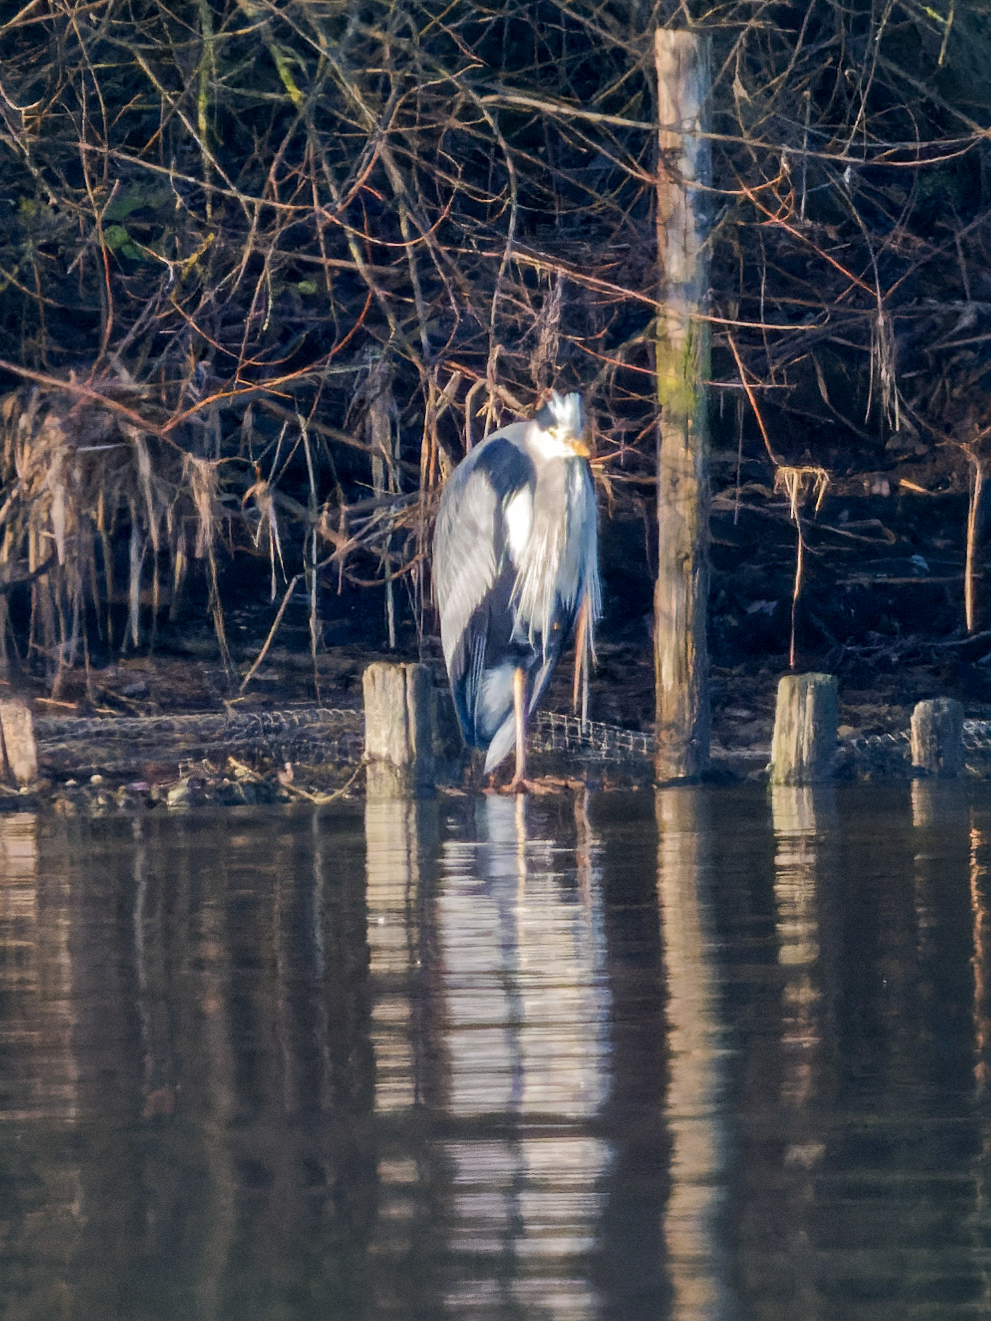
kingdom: Animalia
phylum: Chordata
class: Aves
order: Pelecaniformes
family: Ardeidae
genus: Ardea
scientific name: Ardea cinerea
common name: Grey heron
